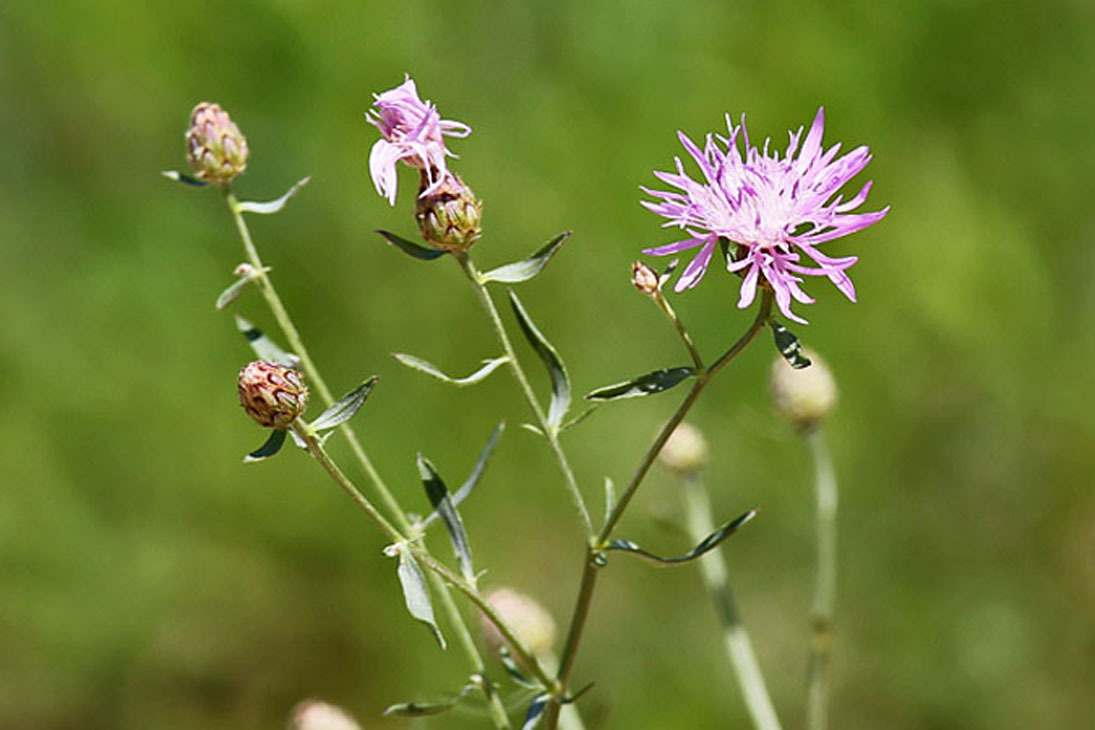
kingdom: Plantae
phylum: Tracheophyta
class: Magnoliopsida
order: Asterales
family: Asteraceae
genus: Centaurea
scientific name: Centaurea stoebe
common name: Spotted knapweed
